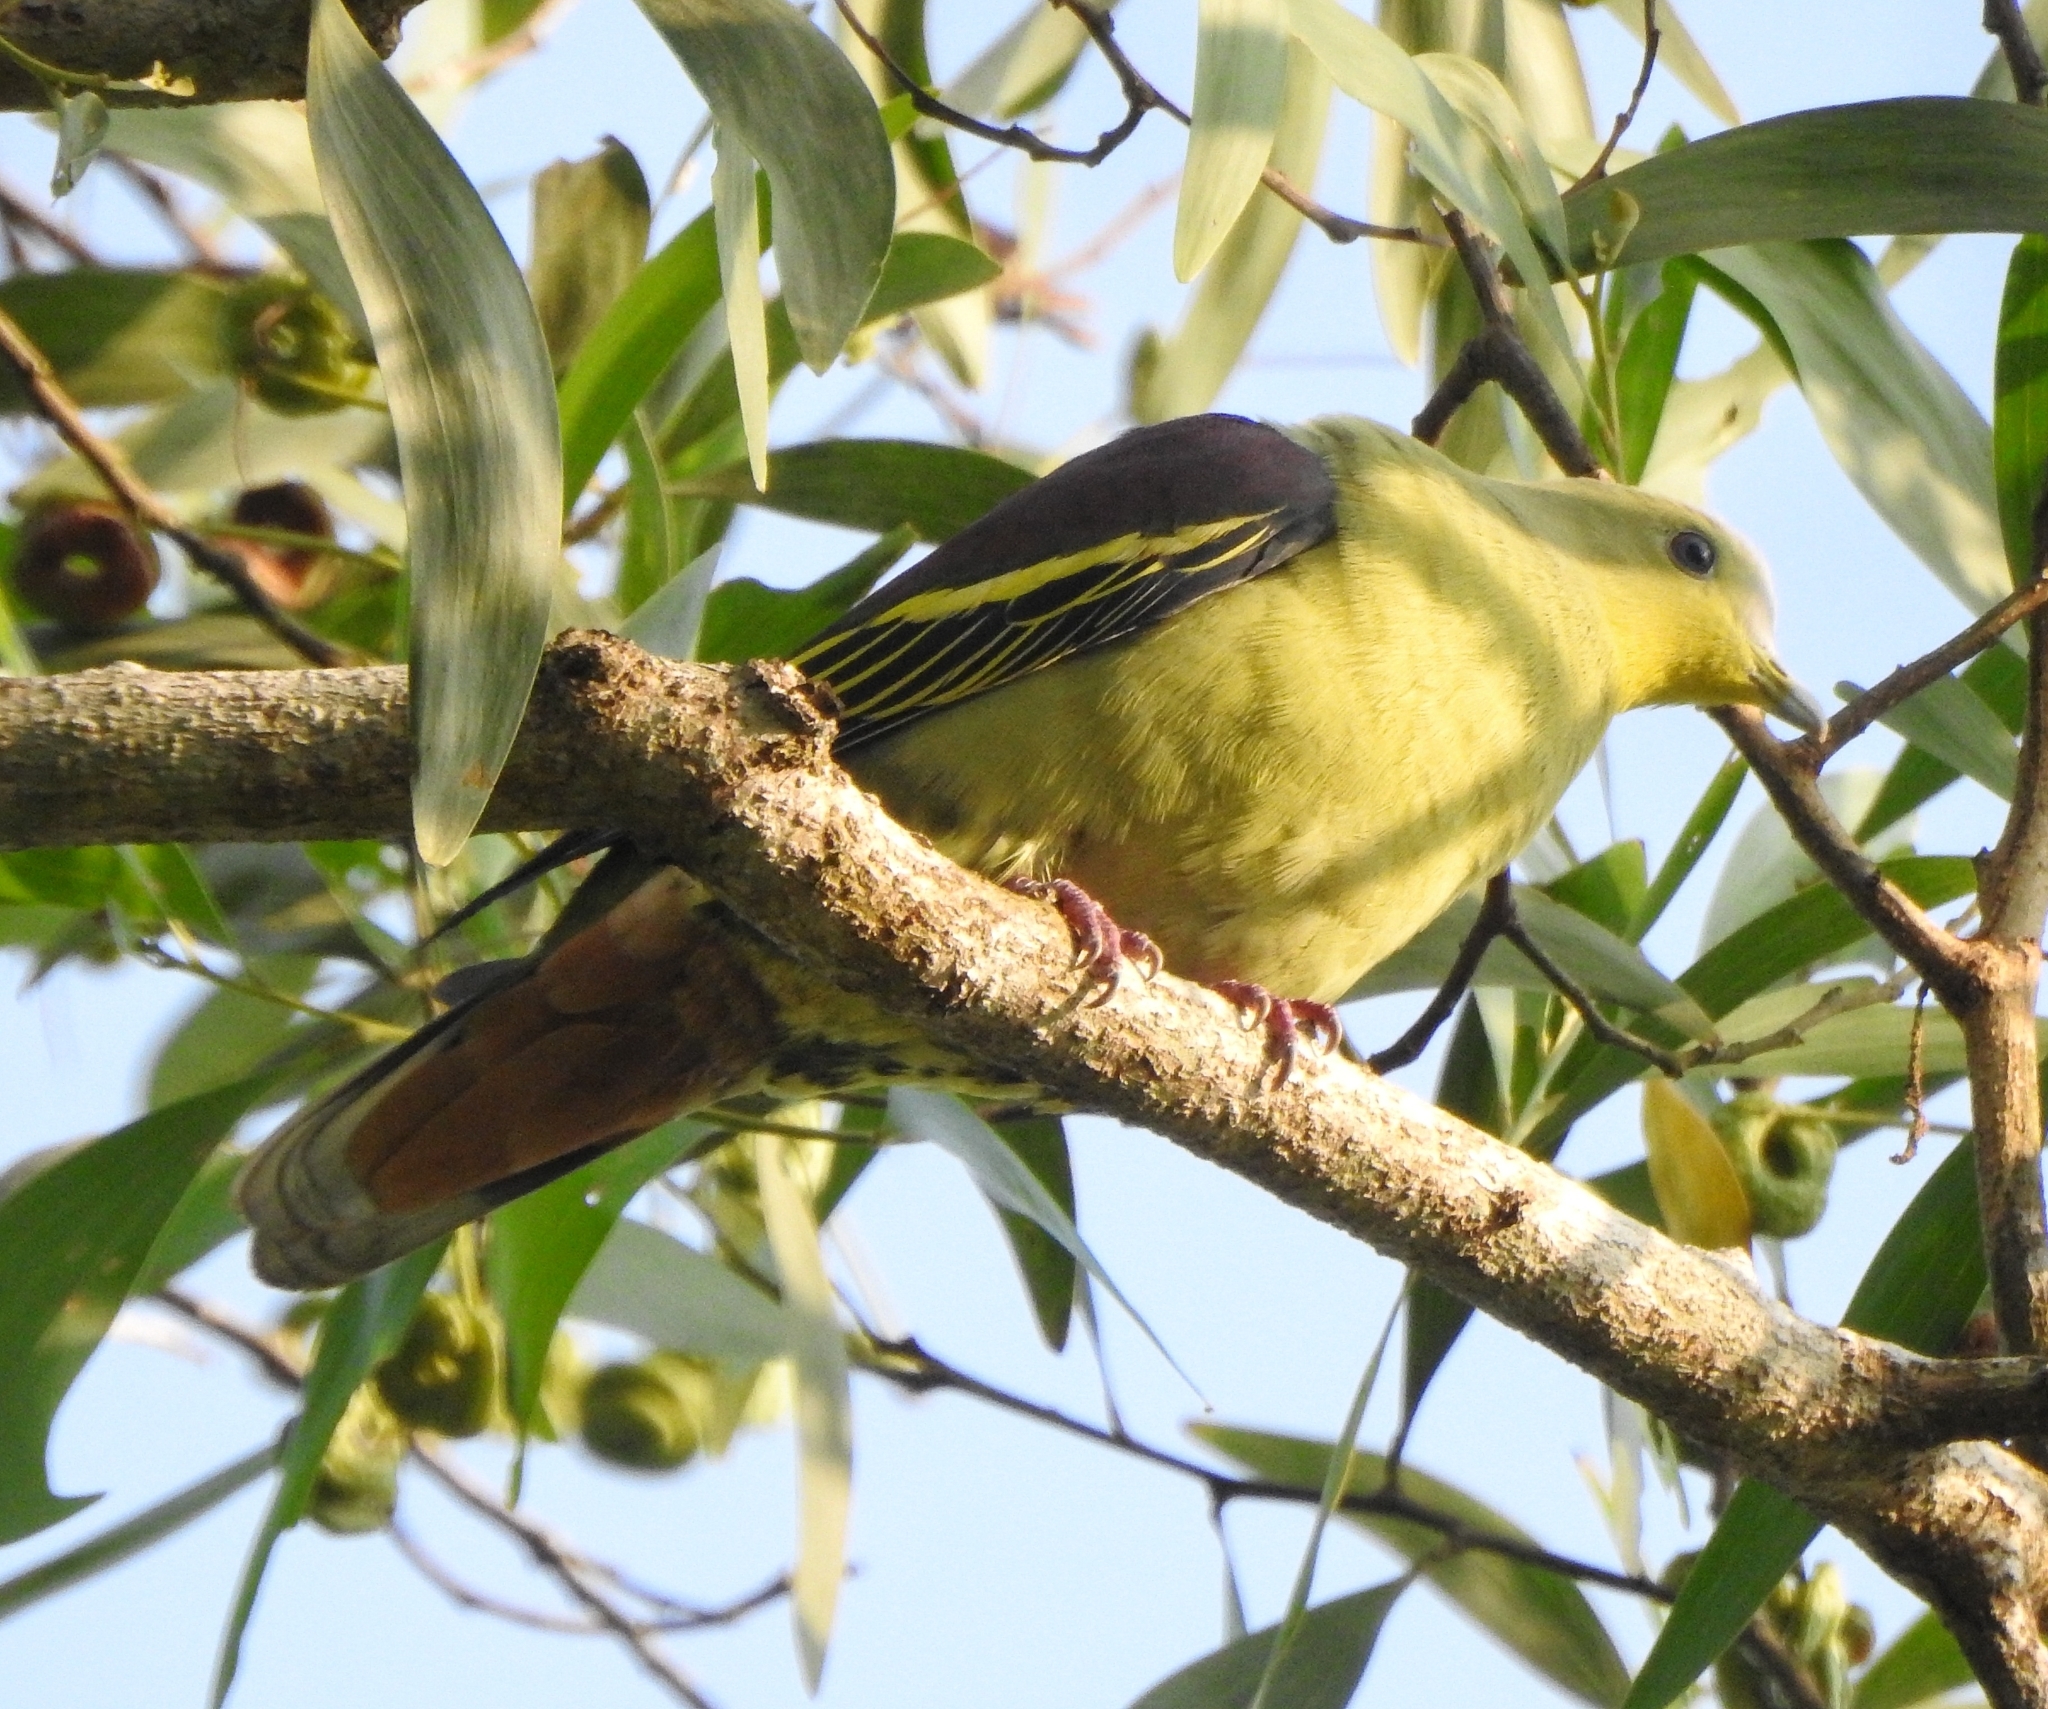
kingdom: Animalia
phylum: Chordata
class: Aves
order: Columbiformes
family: Columbidae
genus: Treron
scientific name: Treron affinis
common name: Grey-fronted green pigeon
